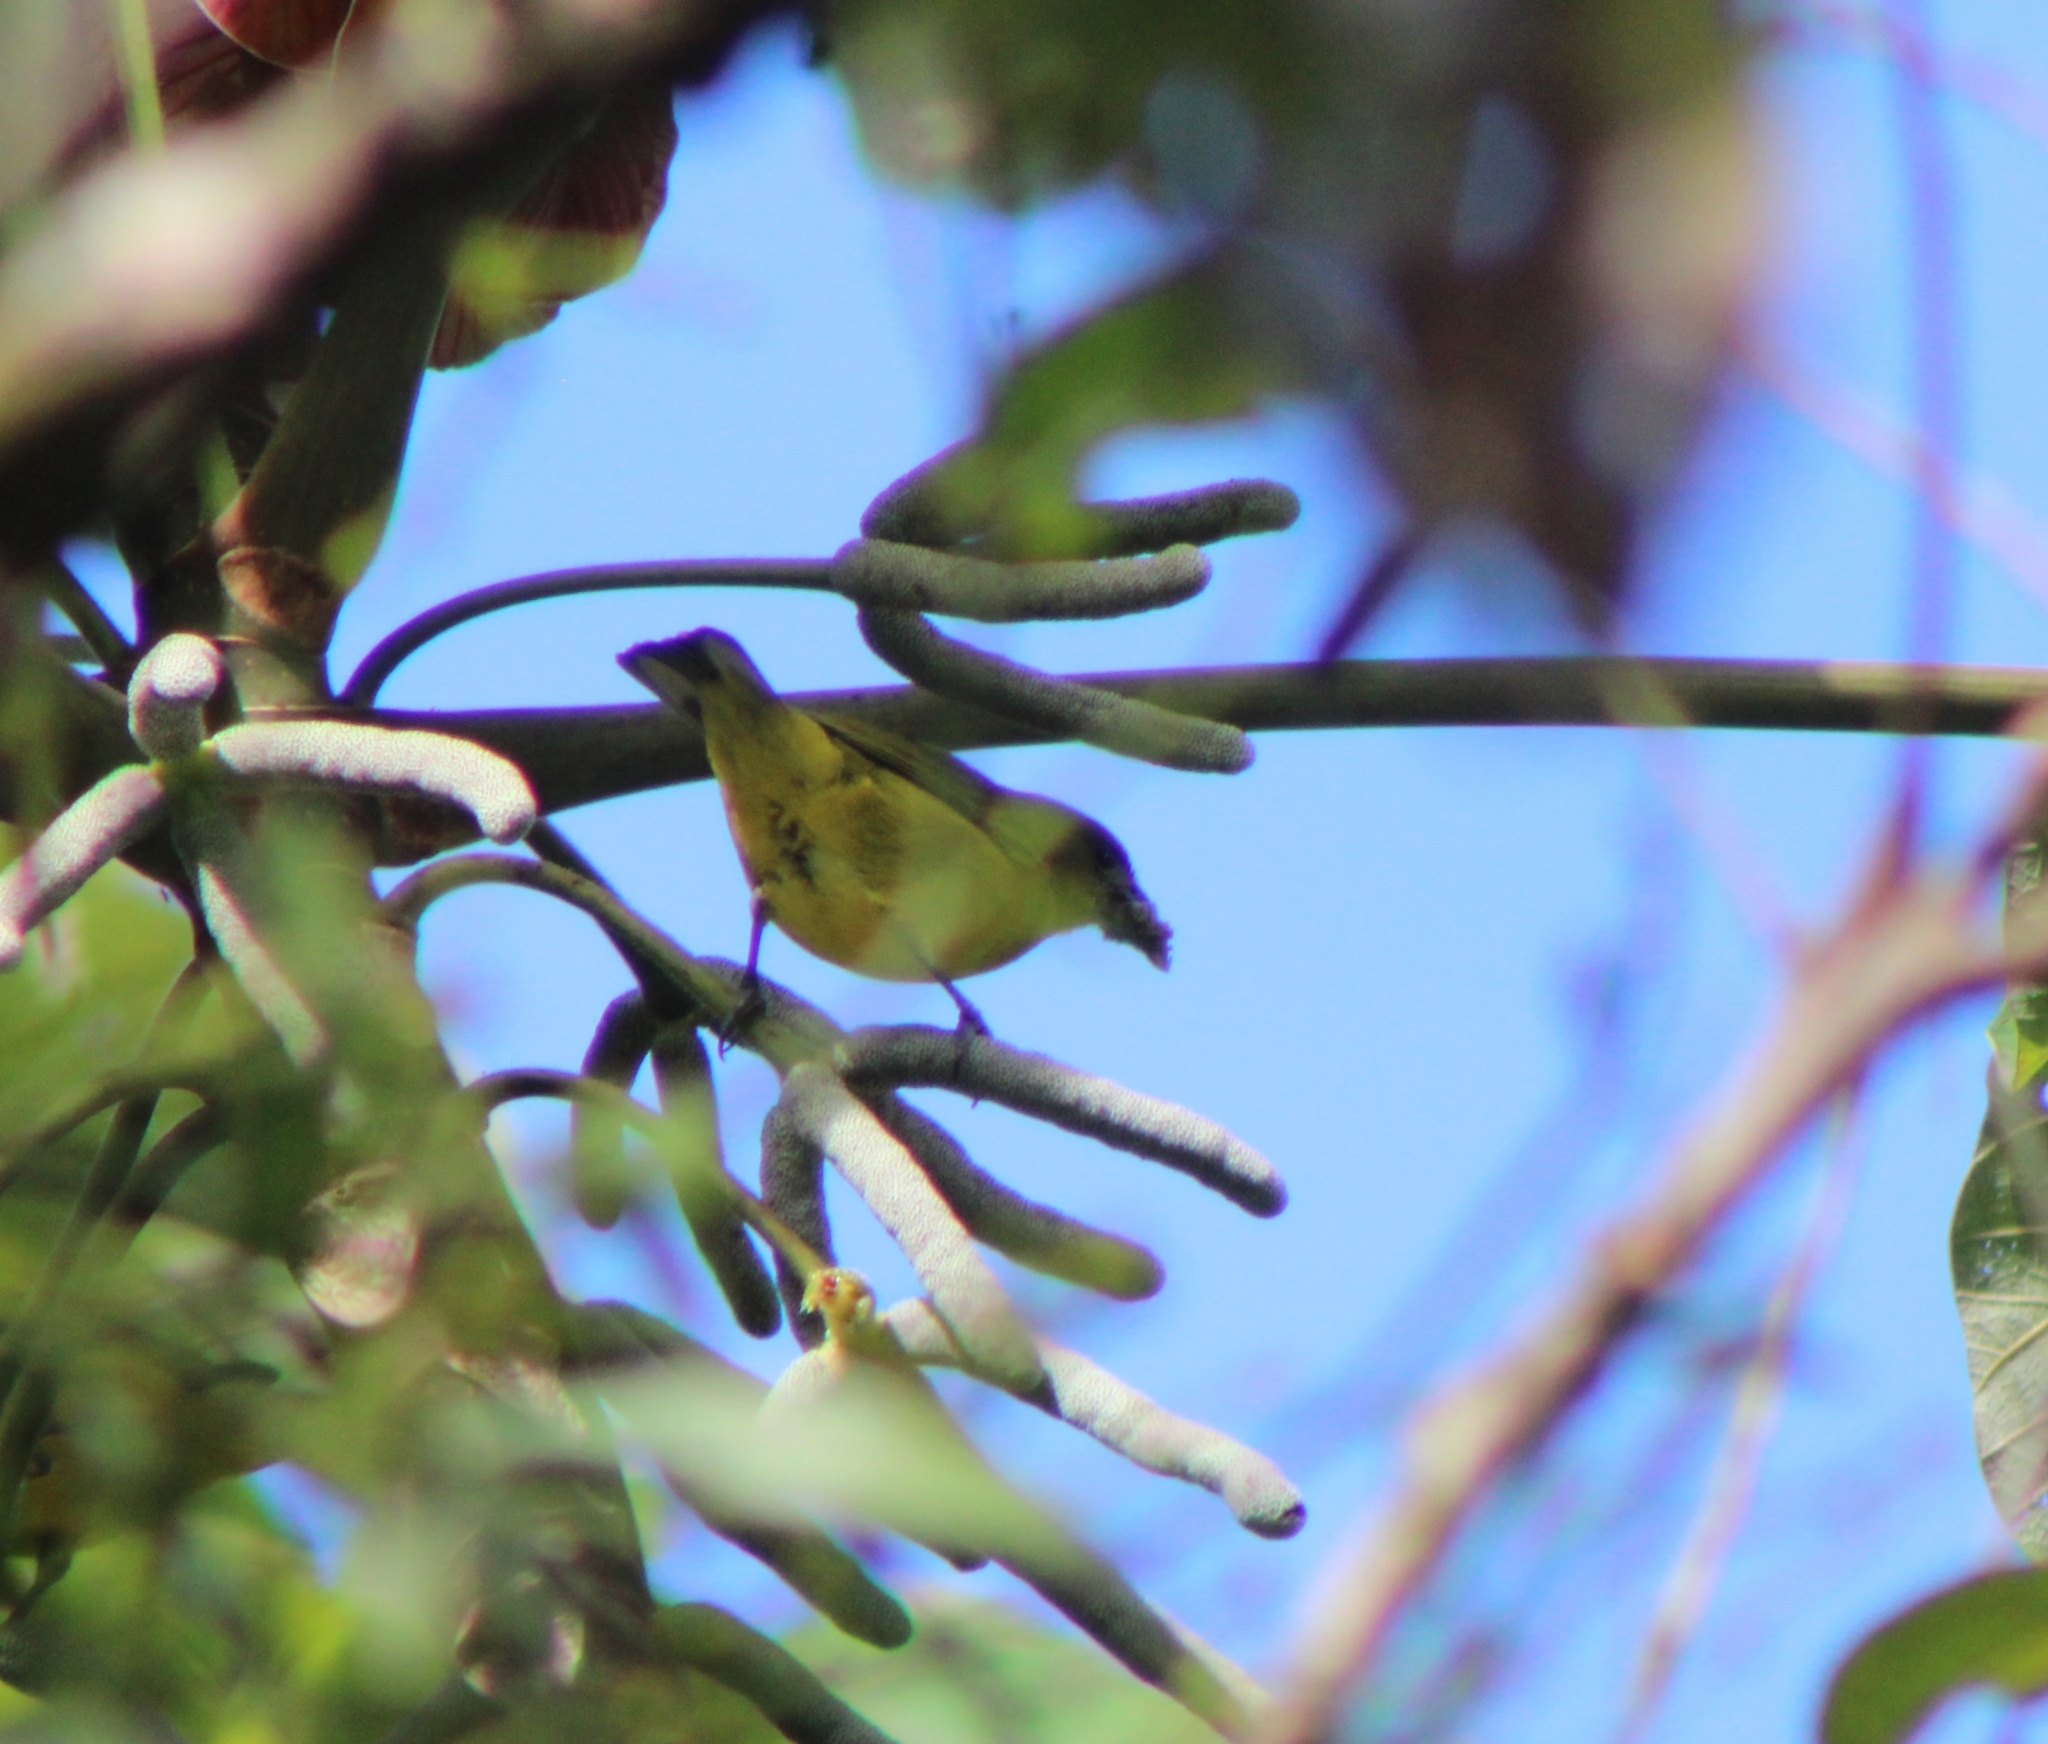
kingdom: Animalia
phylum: Chordata
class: Aves
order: Passeriformes
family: Fringillidae
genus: Euphonia
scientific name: Euphonia laniirostris
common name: Thick-billed euphonia
